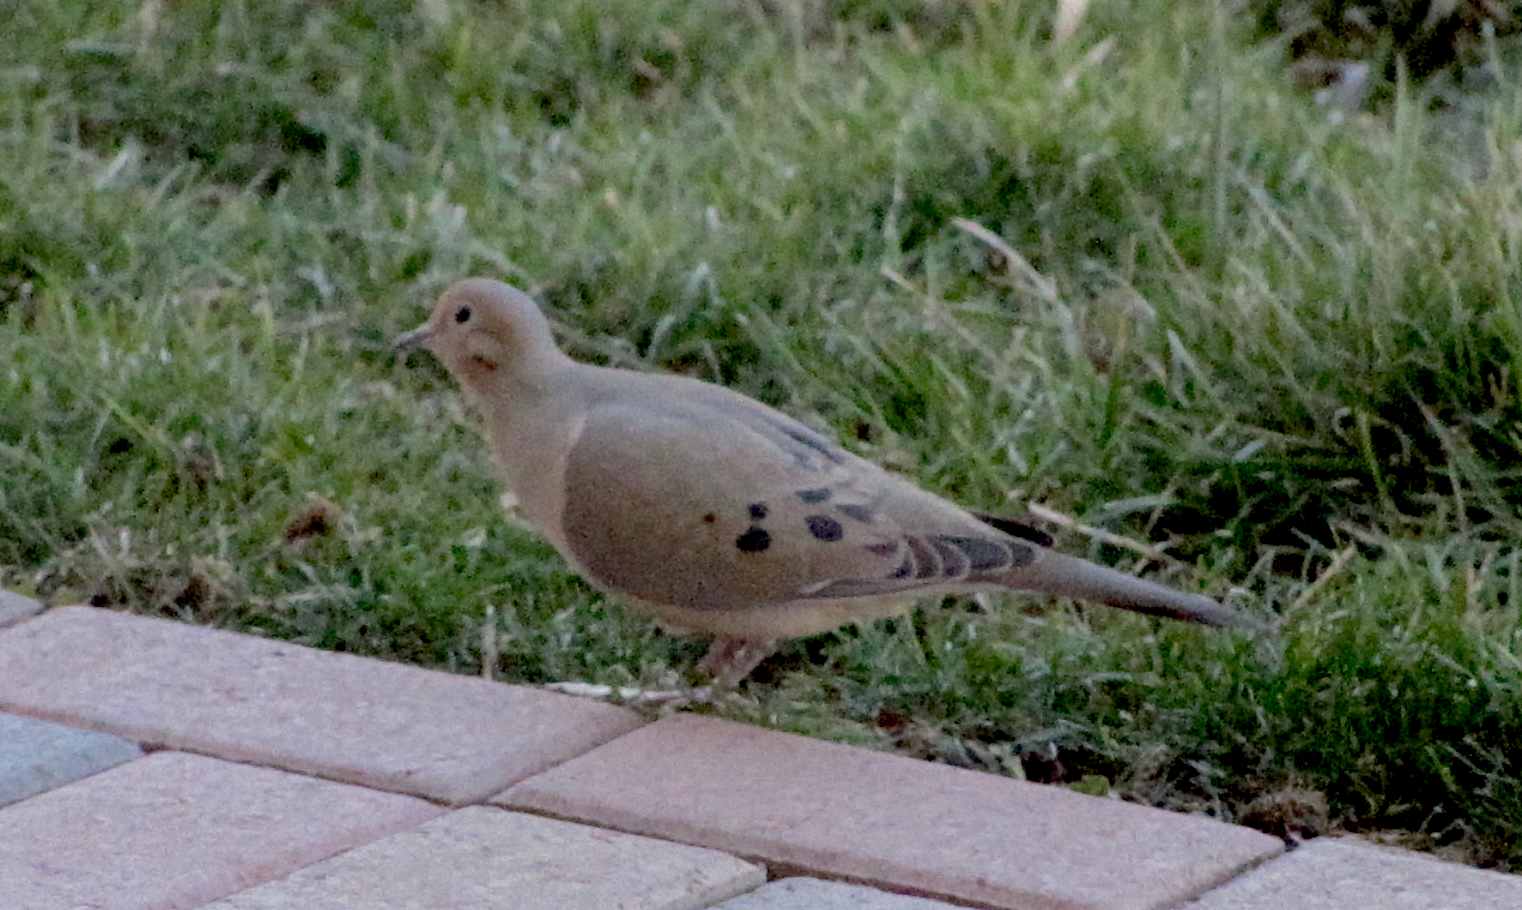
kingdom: Animalia
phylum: Chordata
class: Aves
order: Columbiformes
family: Columbidae
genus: Zenaida
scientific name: Zenaida macroura
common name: Mourning dove
